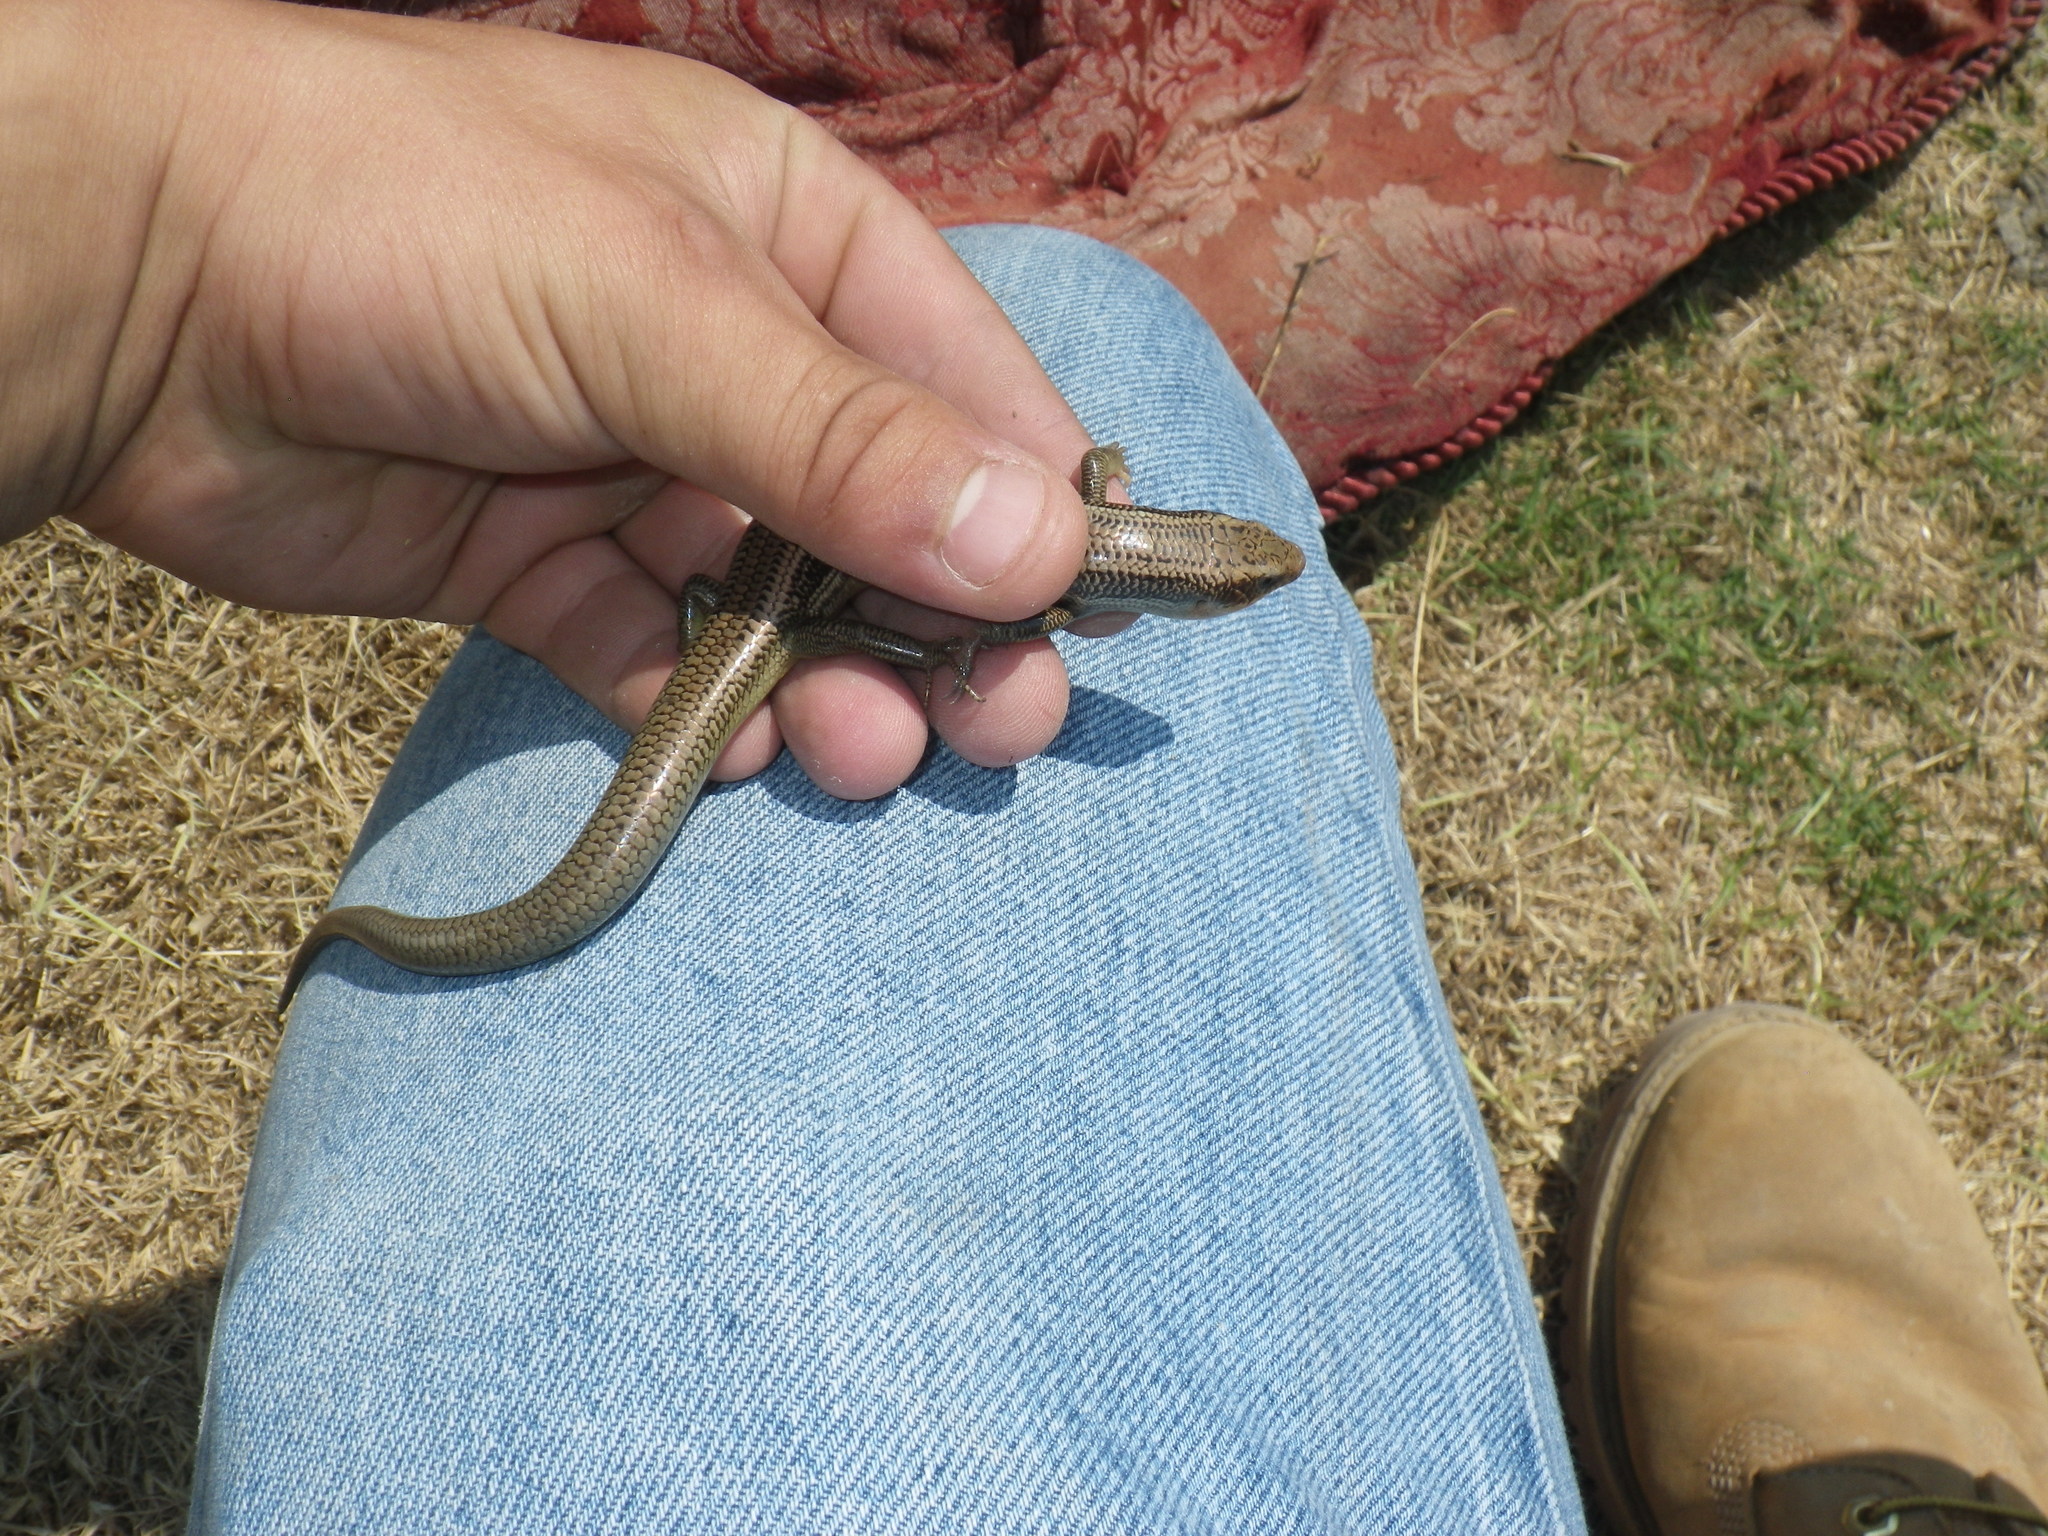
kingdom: Animalia
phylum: Chordata
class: Squamata
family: Scincidae
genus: Plestiodon
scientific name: Plestiodon gilberti
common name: Gilbert's skink
